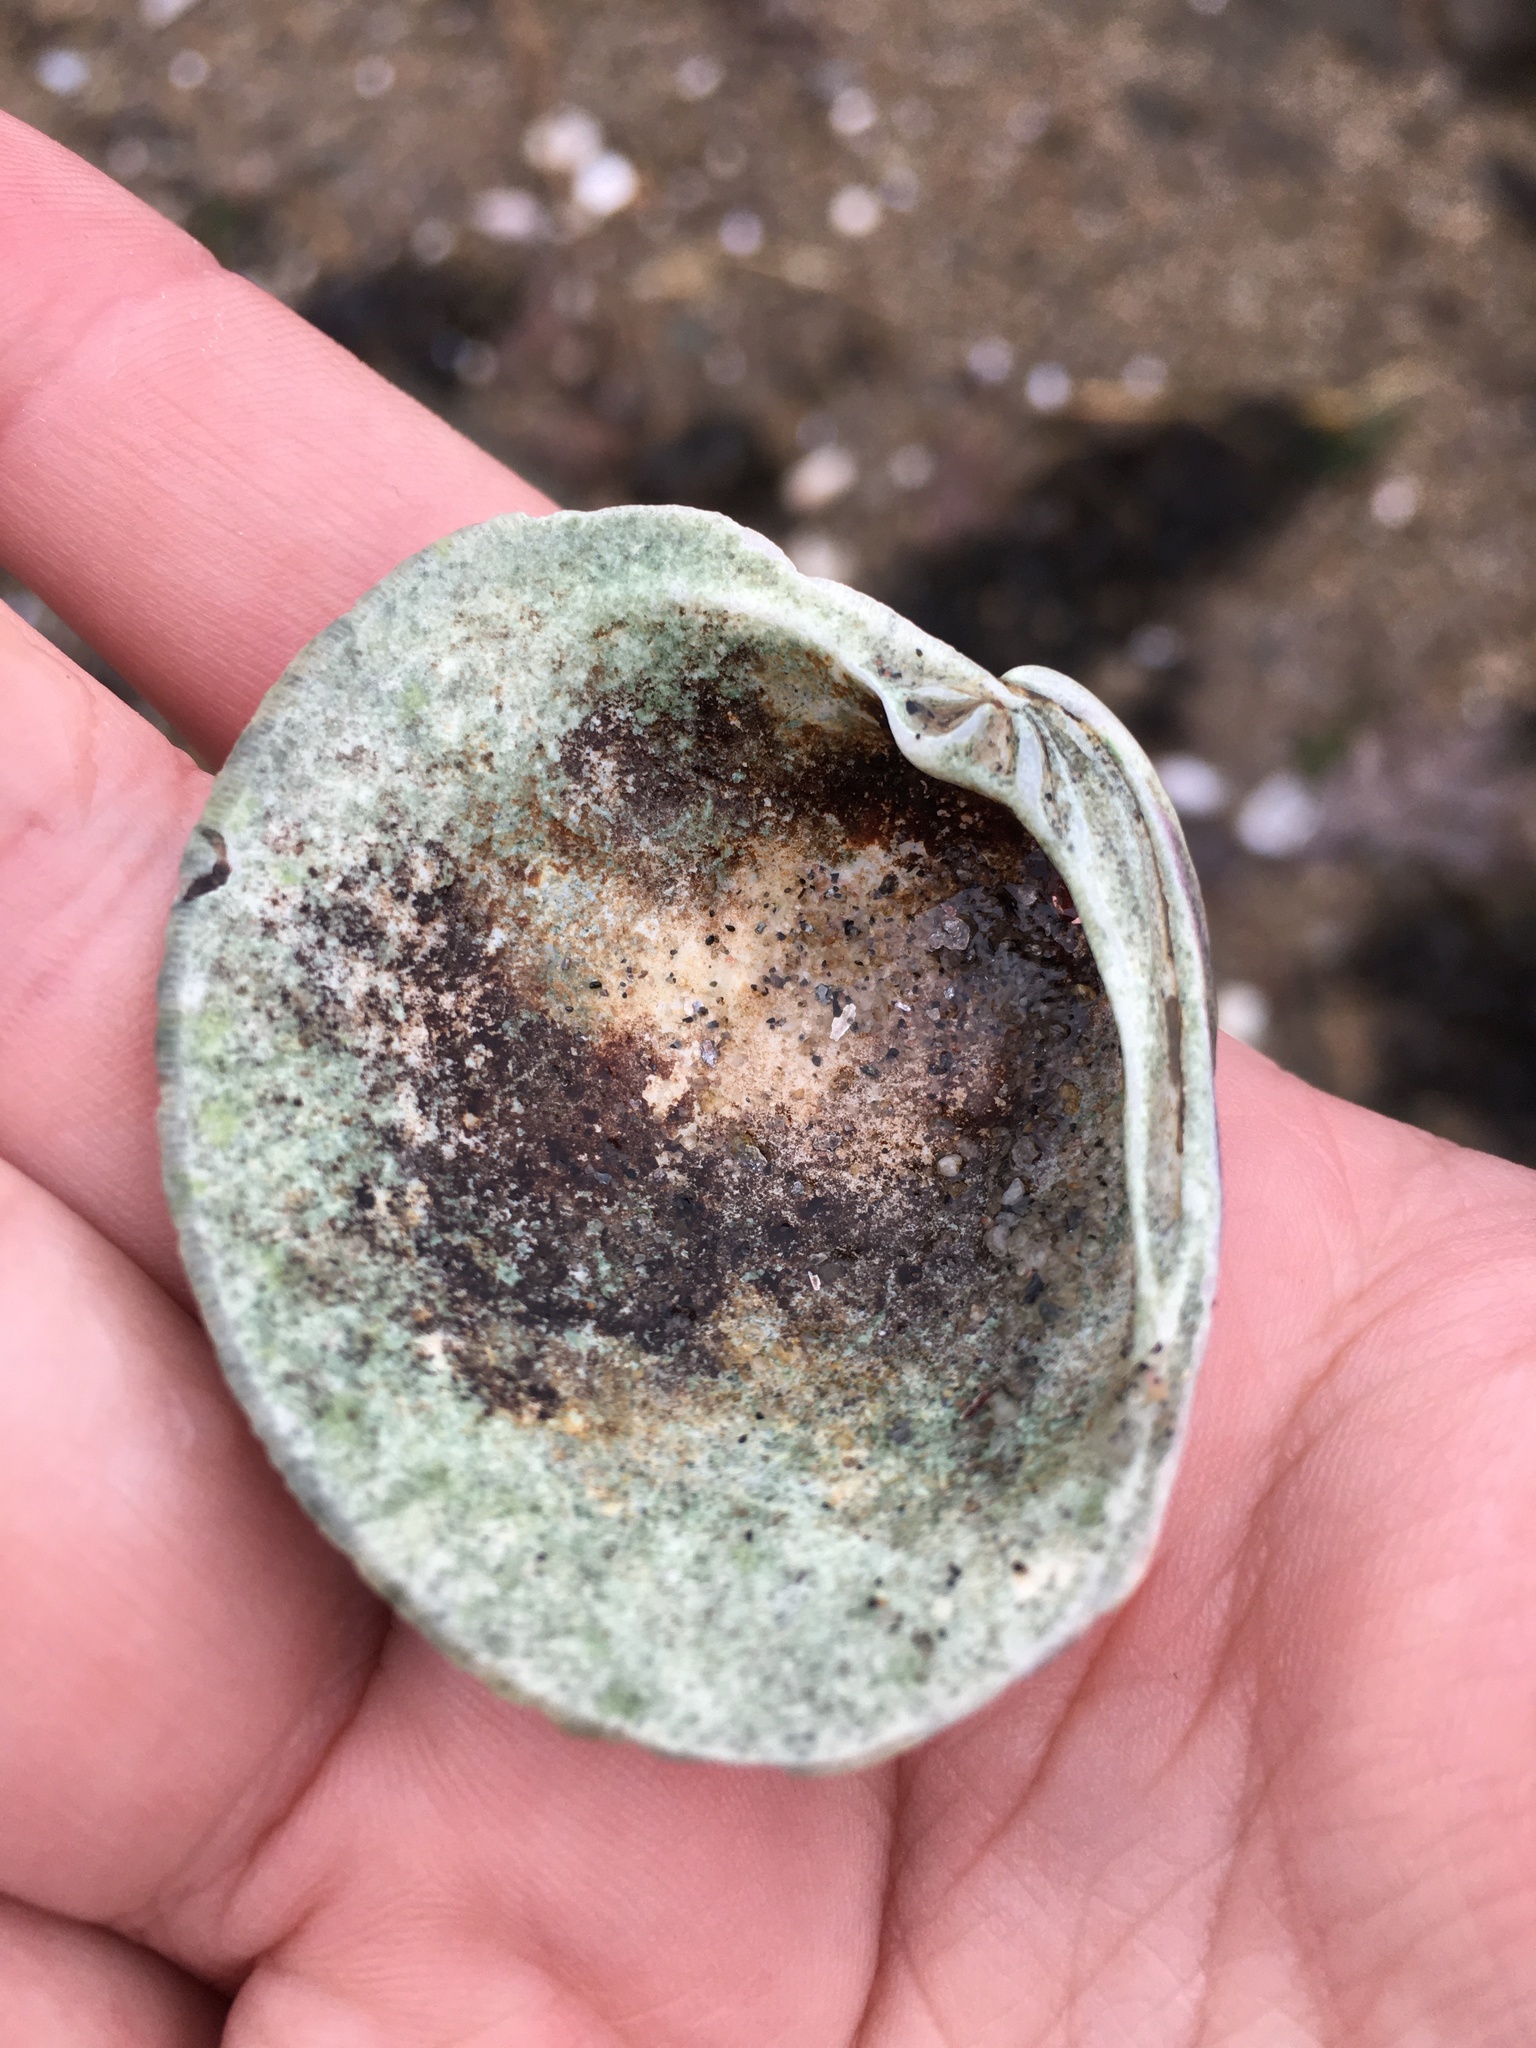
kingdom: Animalia
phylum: Mollusca
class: Bivalvia
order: Venerida
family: Veneridae
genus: Mercenaria
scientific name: Mercenaria mercenaria
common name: American hard-shelled clam
